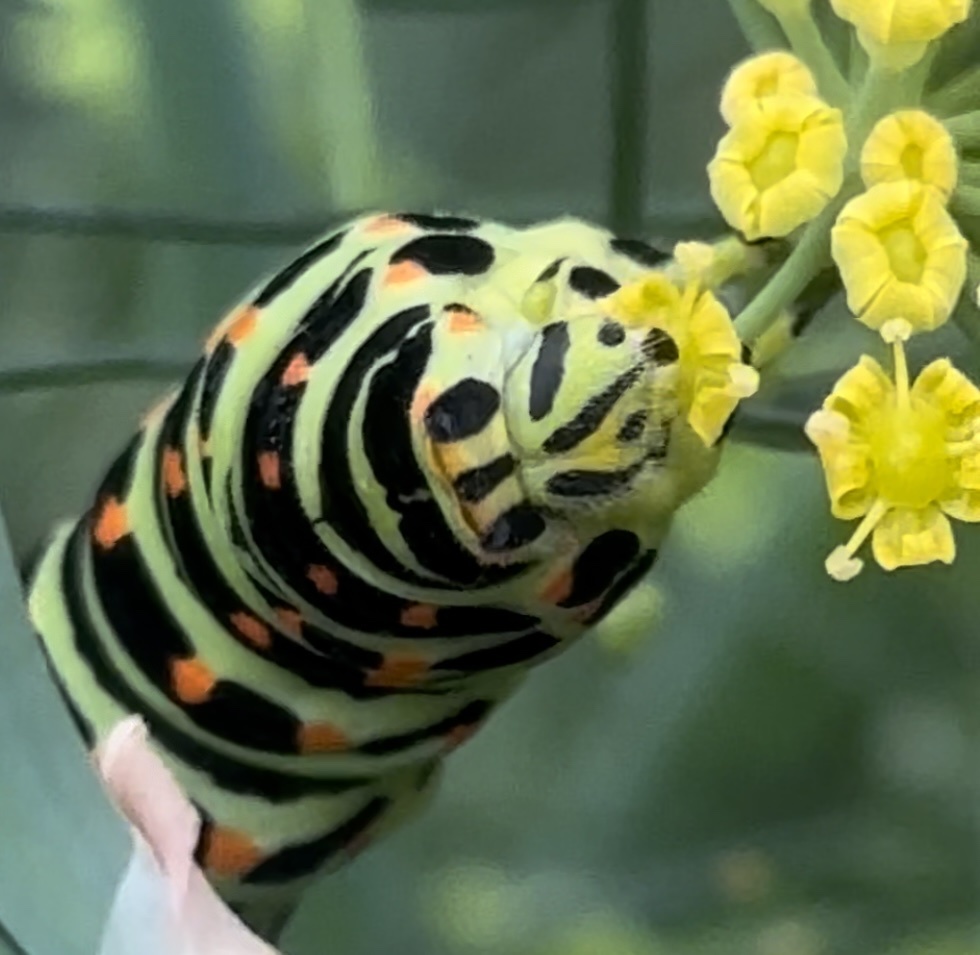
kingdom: Animalia
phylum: Arthropoda
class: Insecta
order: Lepidoptera
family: Papilionidae
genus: Papilio
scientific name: Papilio machaon
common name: Swallowtail
